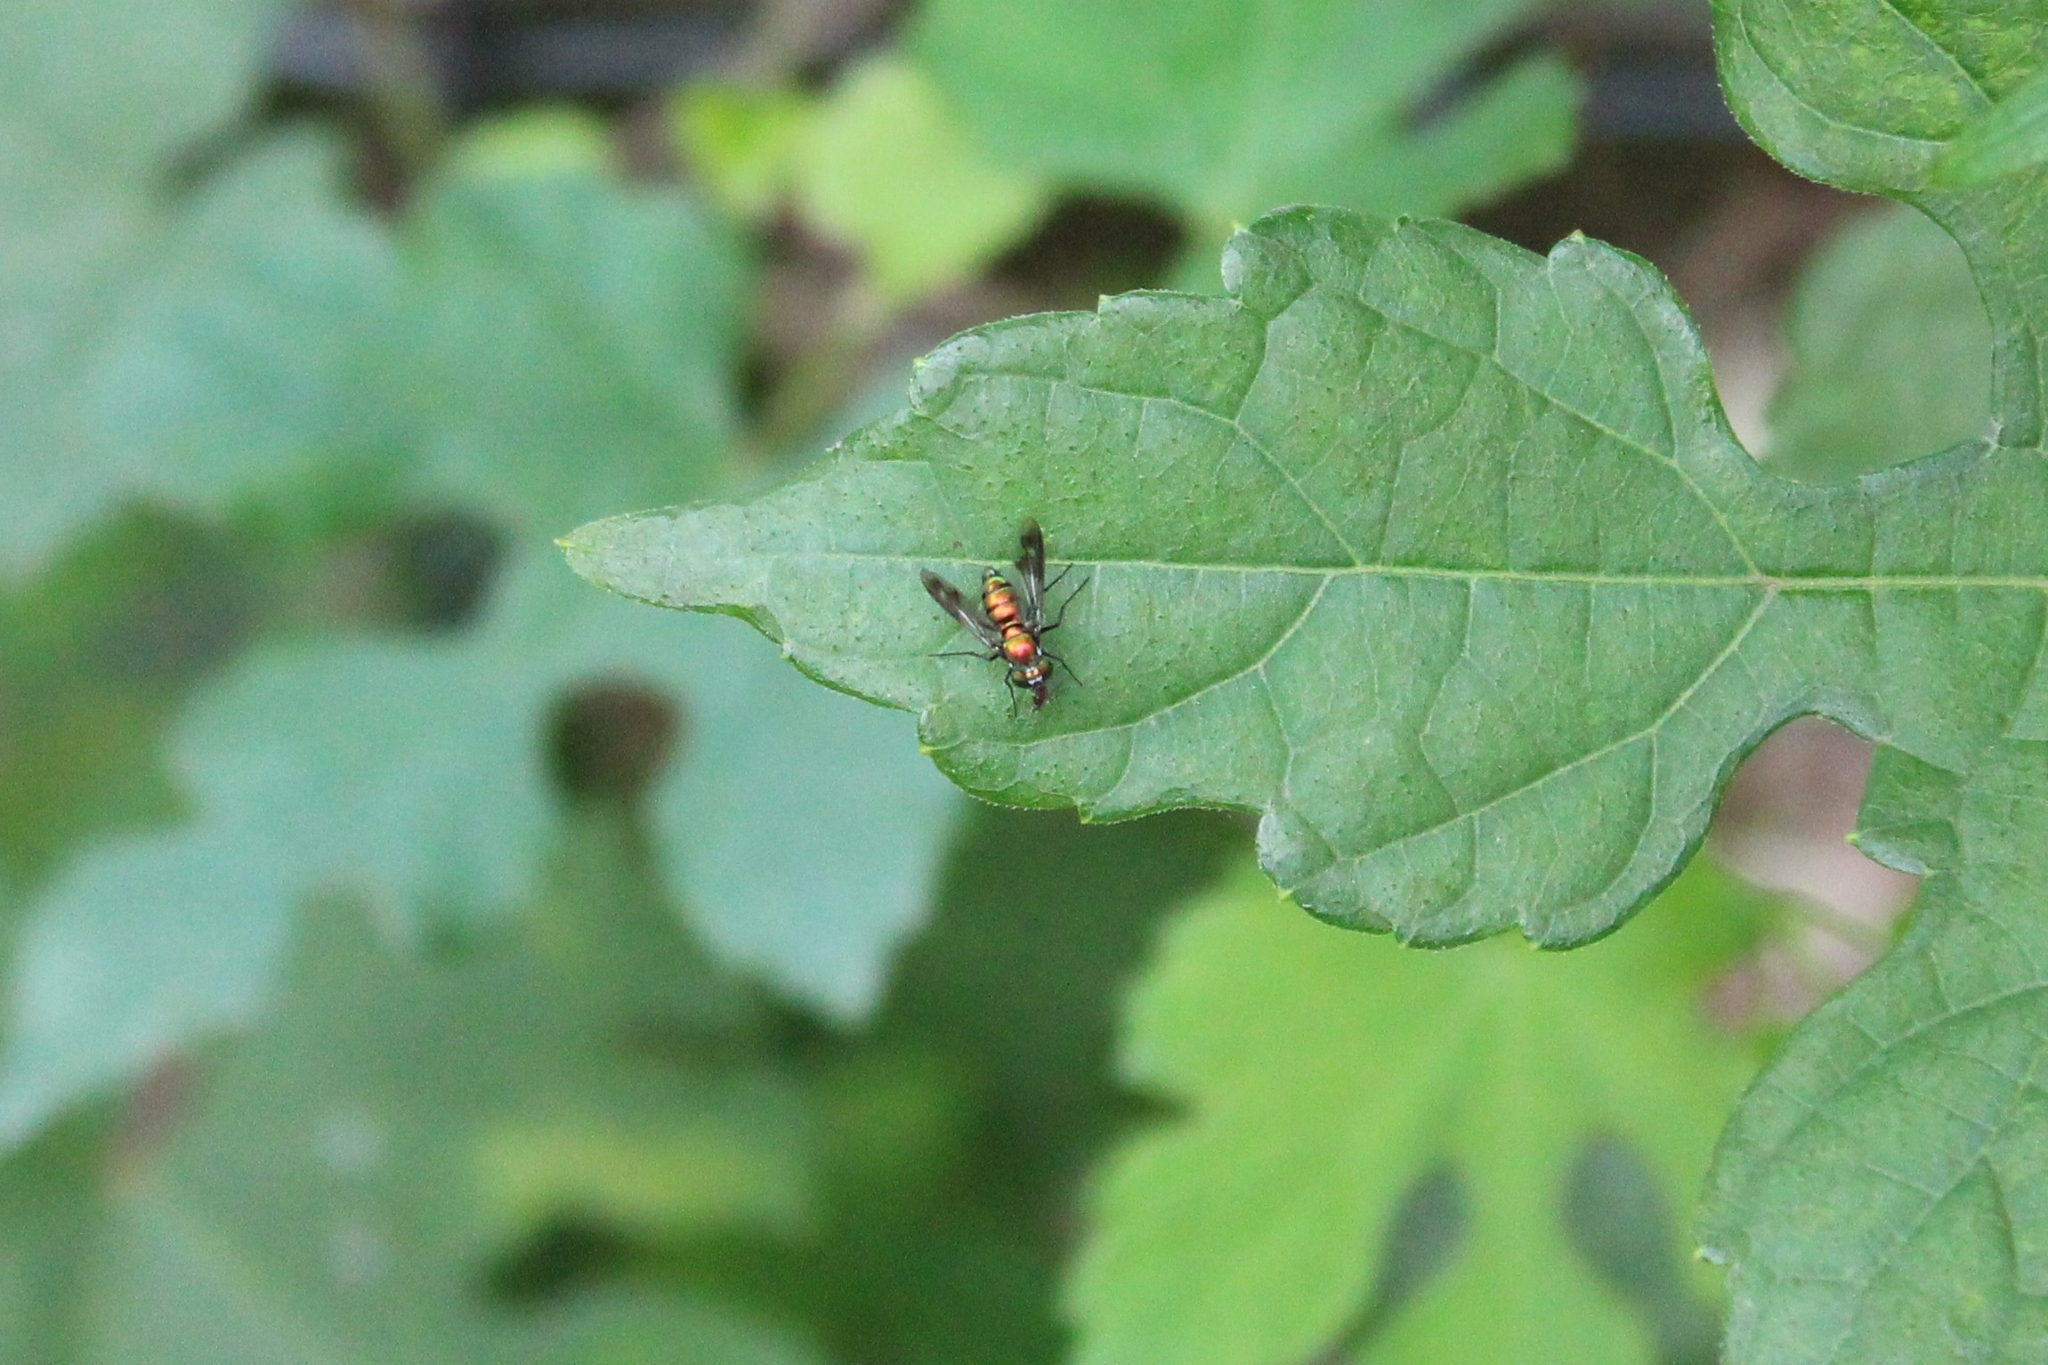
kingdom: Animalia
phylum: Arthropoda
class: Insecta
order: Diptera
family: Dolichopodidae
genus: Condylostylus
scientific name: Condylostylus patibulatus
